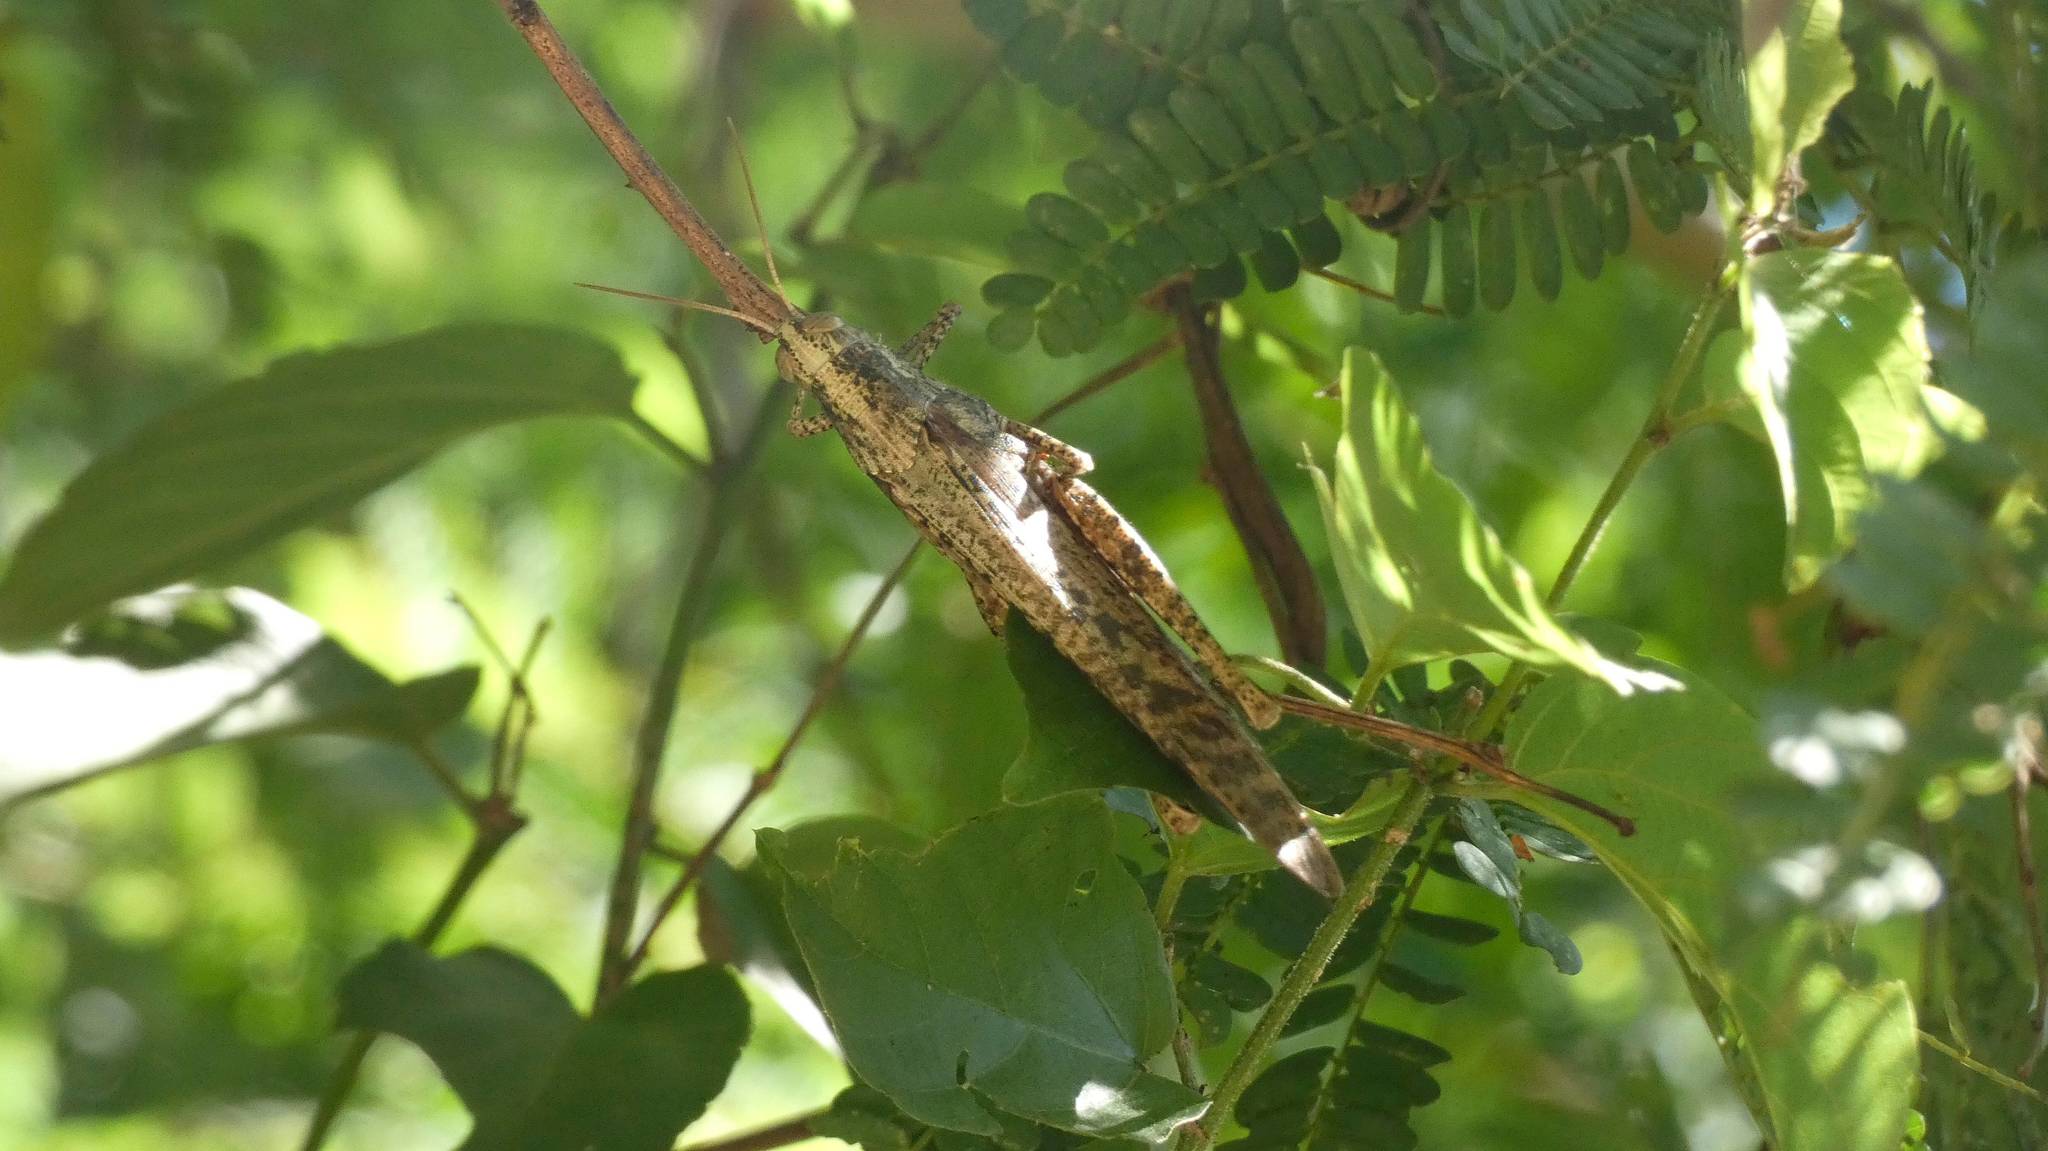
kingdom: Animalia
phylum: Arthropoda
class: Insecta
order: Orthoptera
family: Acrididae
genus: Schistocerca
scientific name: Schistocerca nitens
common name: Vagrant grasshopper
